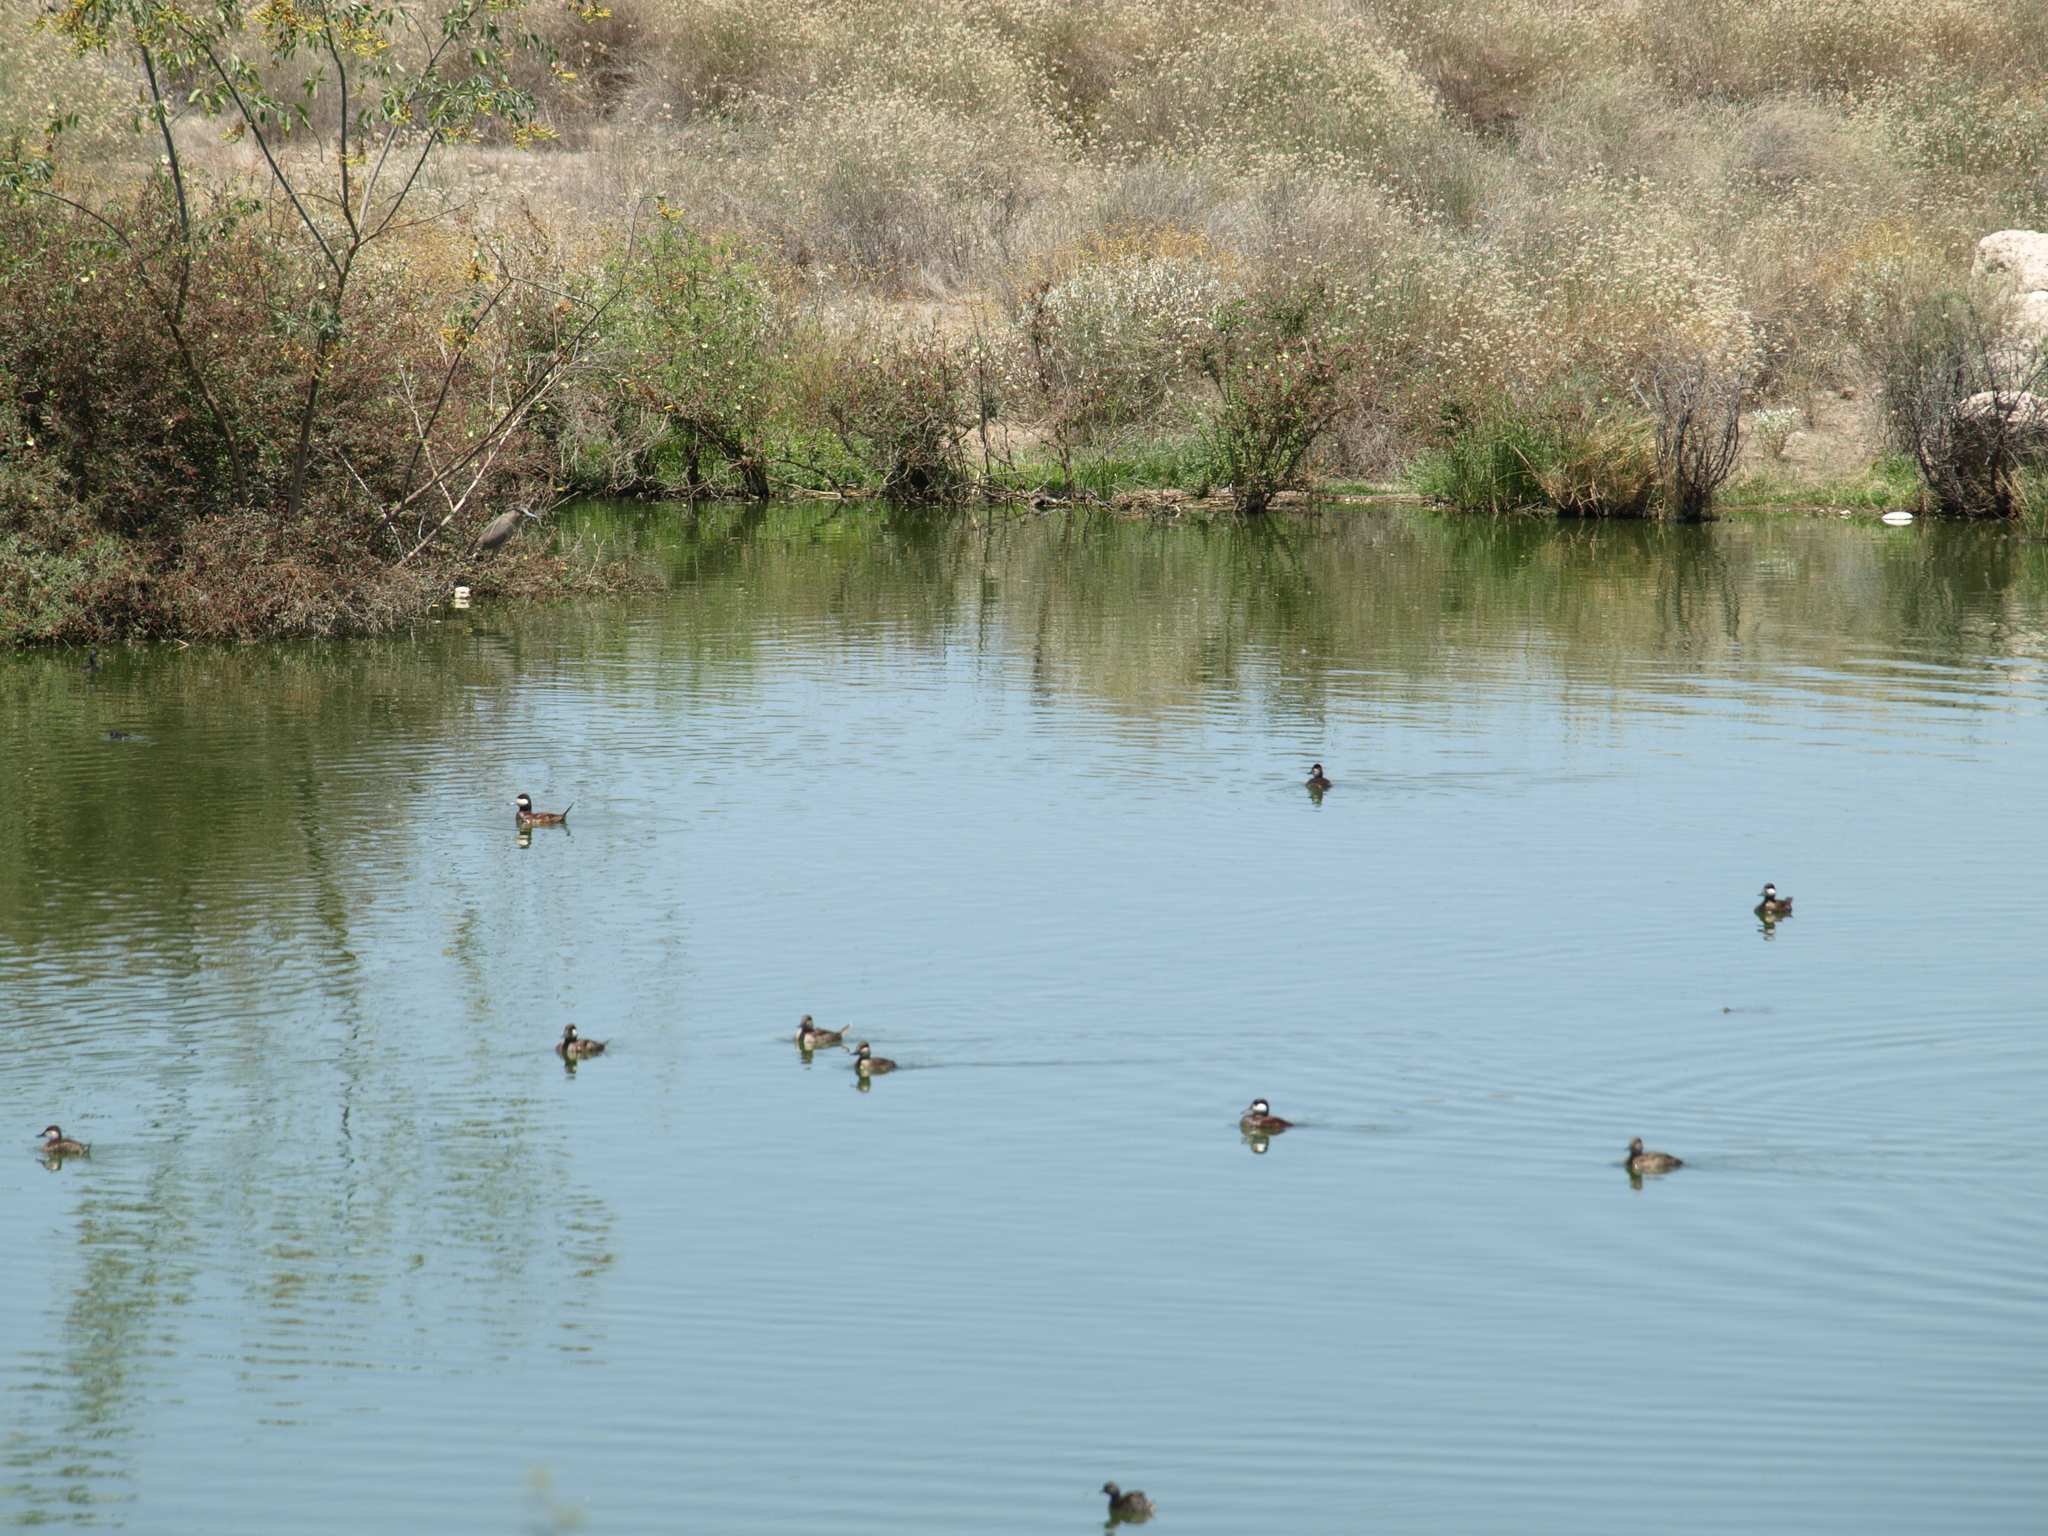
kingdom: Animalia
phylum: Chordata
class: Aves
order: Anseriformes
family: Anatidae
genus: Oxyura
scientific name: Oxyura jamaicensis
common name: Ruddy duck
